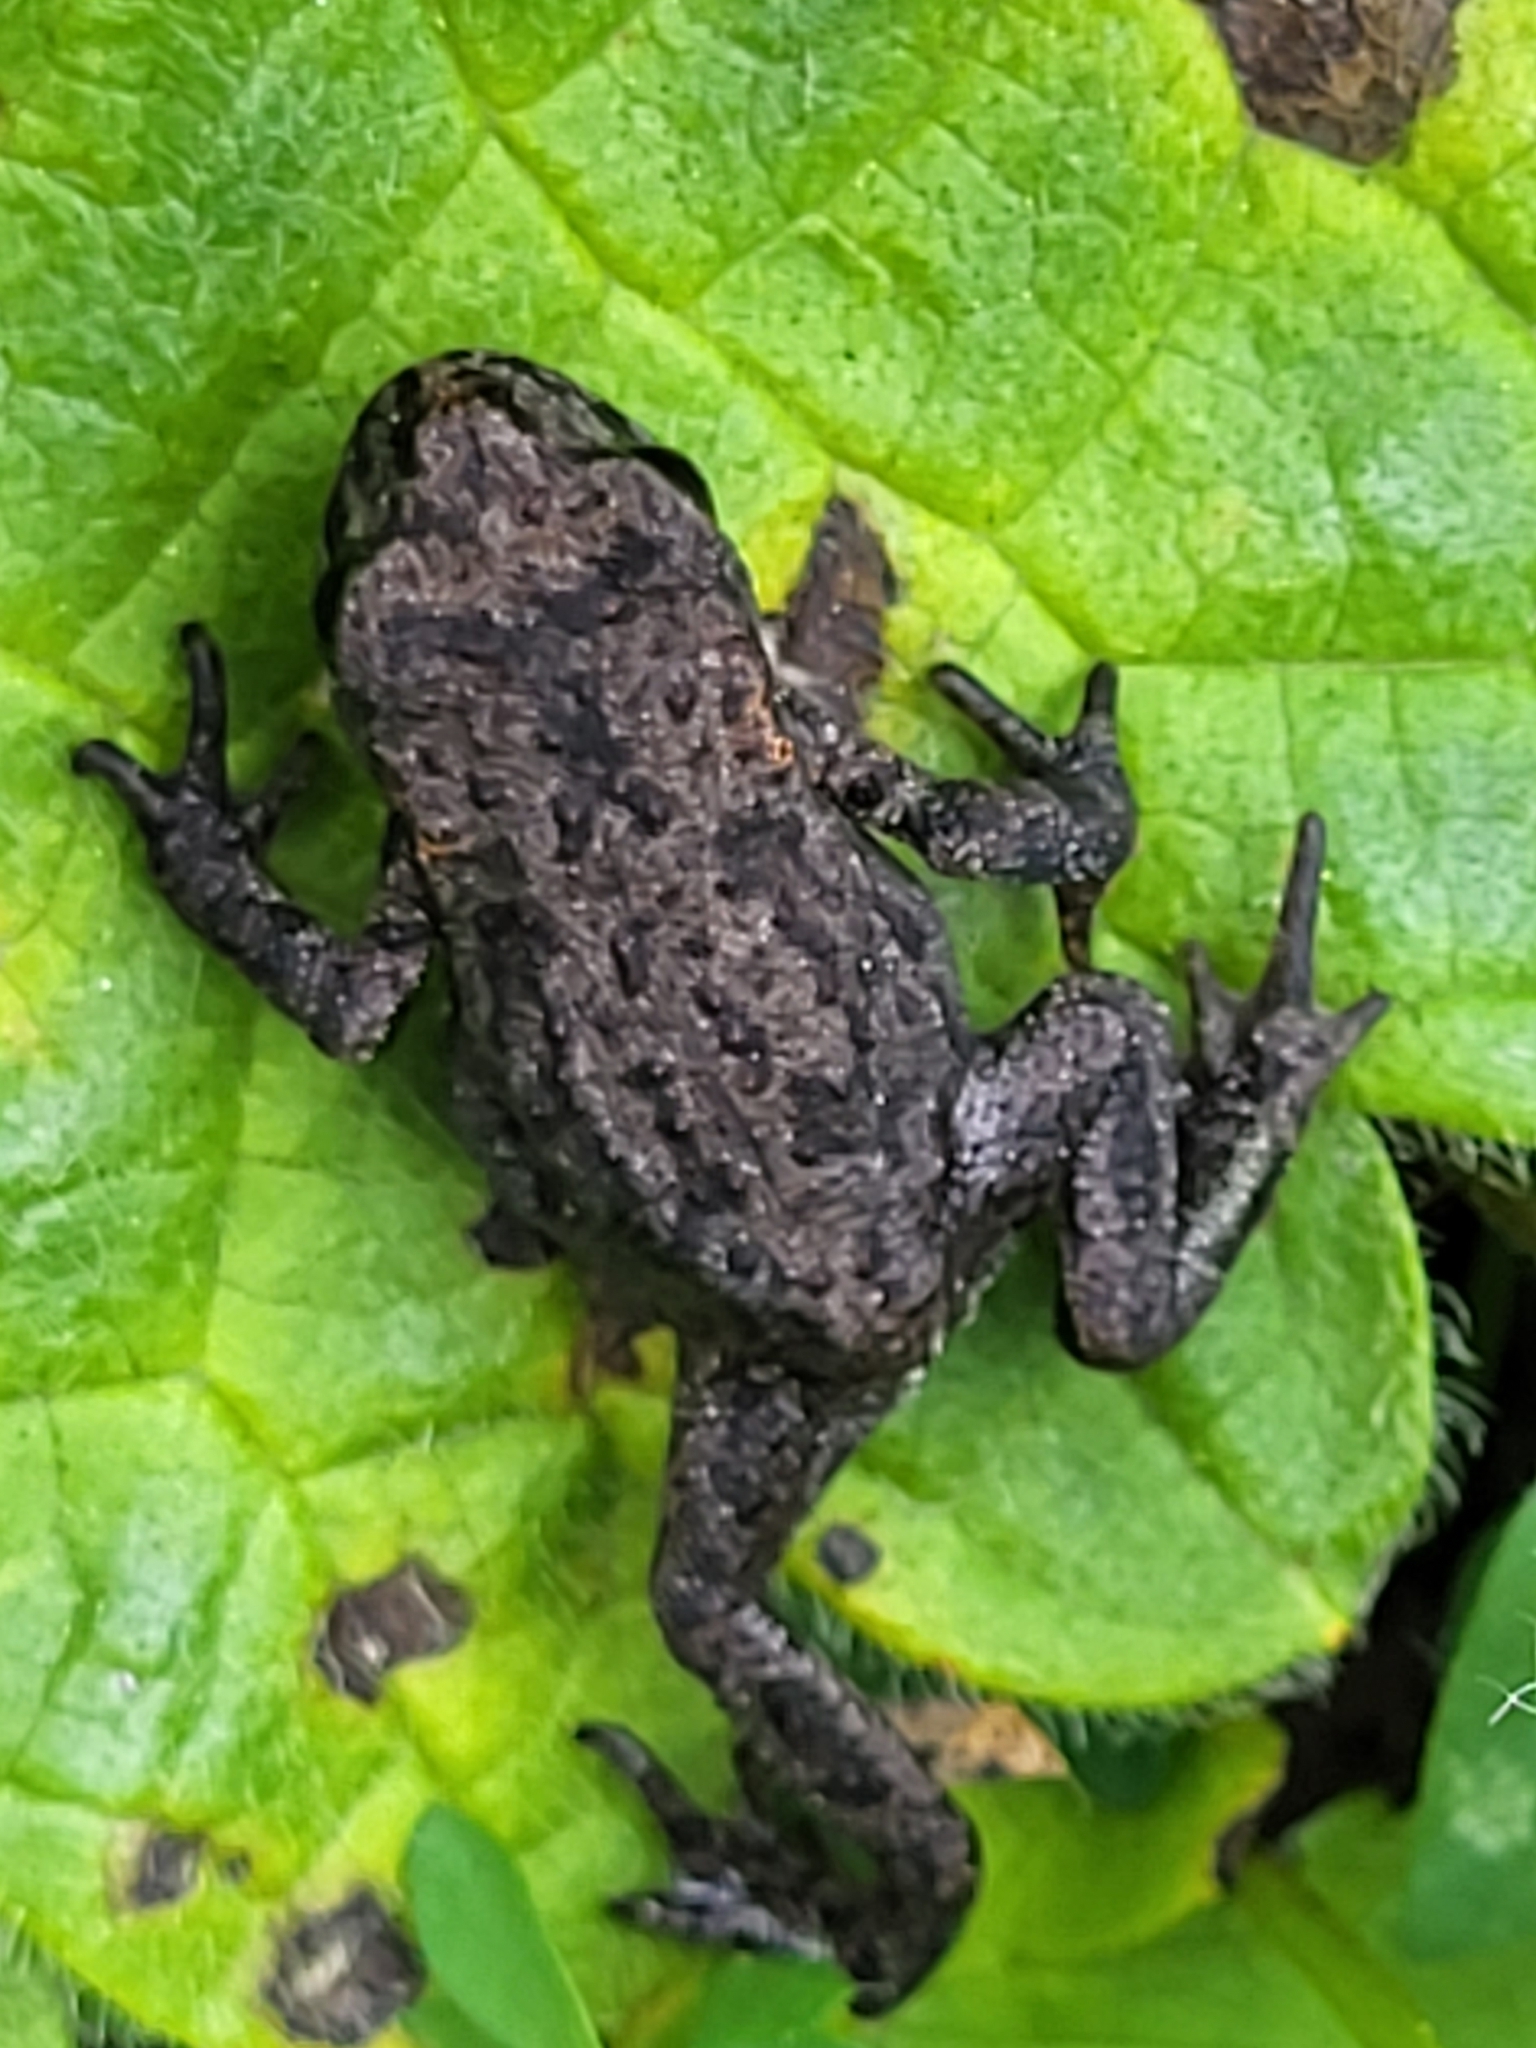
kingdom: Animalia
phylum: Chordata
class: Amphibia
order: Anura
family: Bufonidae
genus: Bufo
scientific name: Bufo bufo
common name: Common toad
